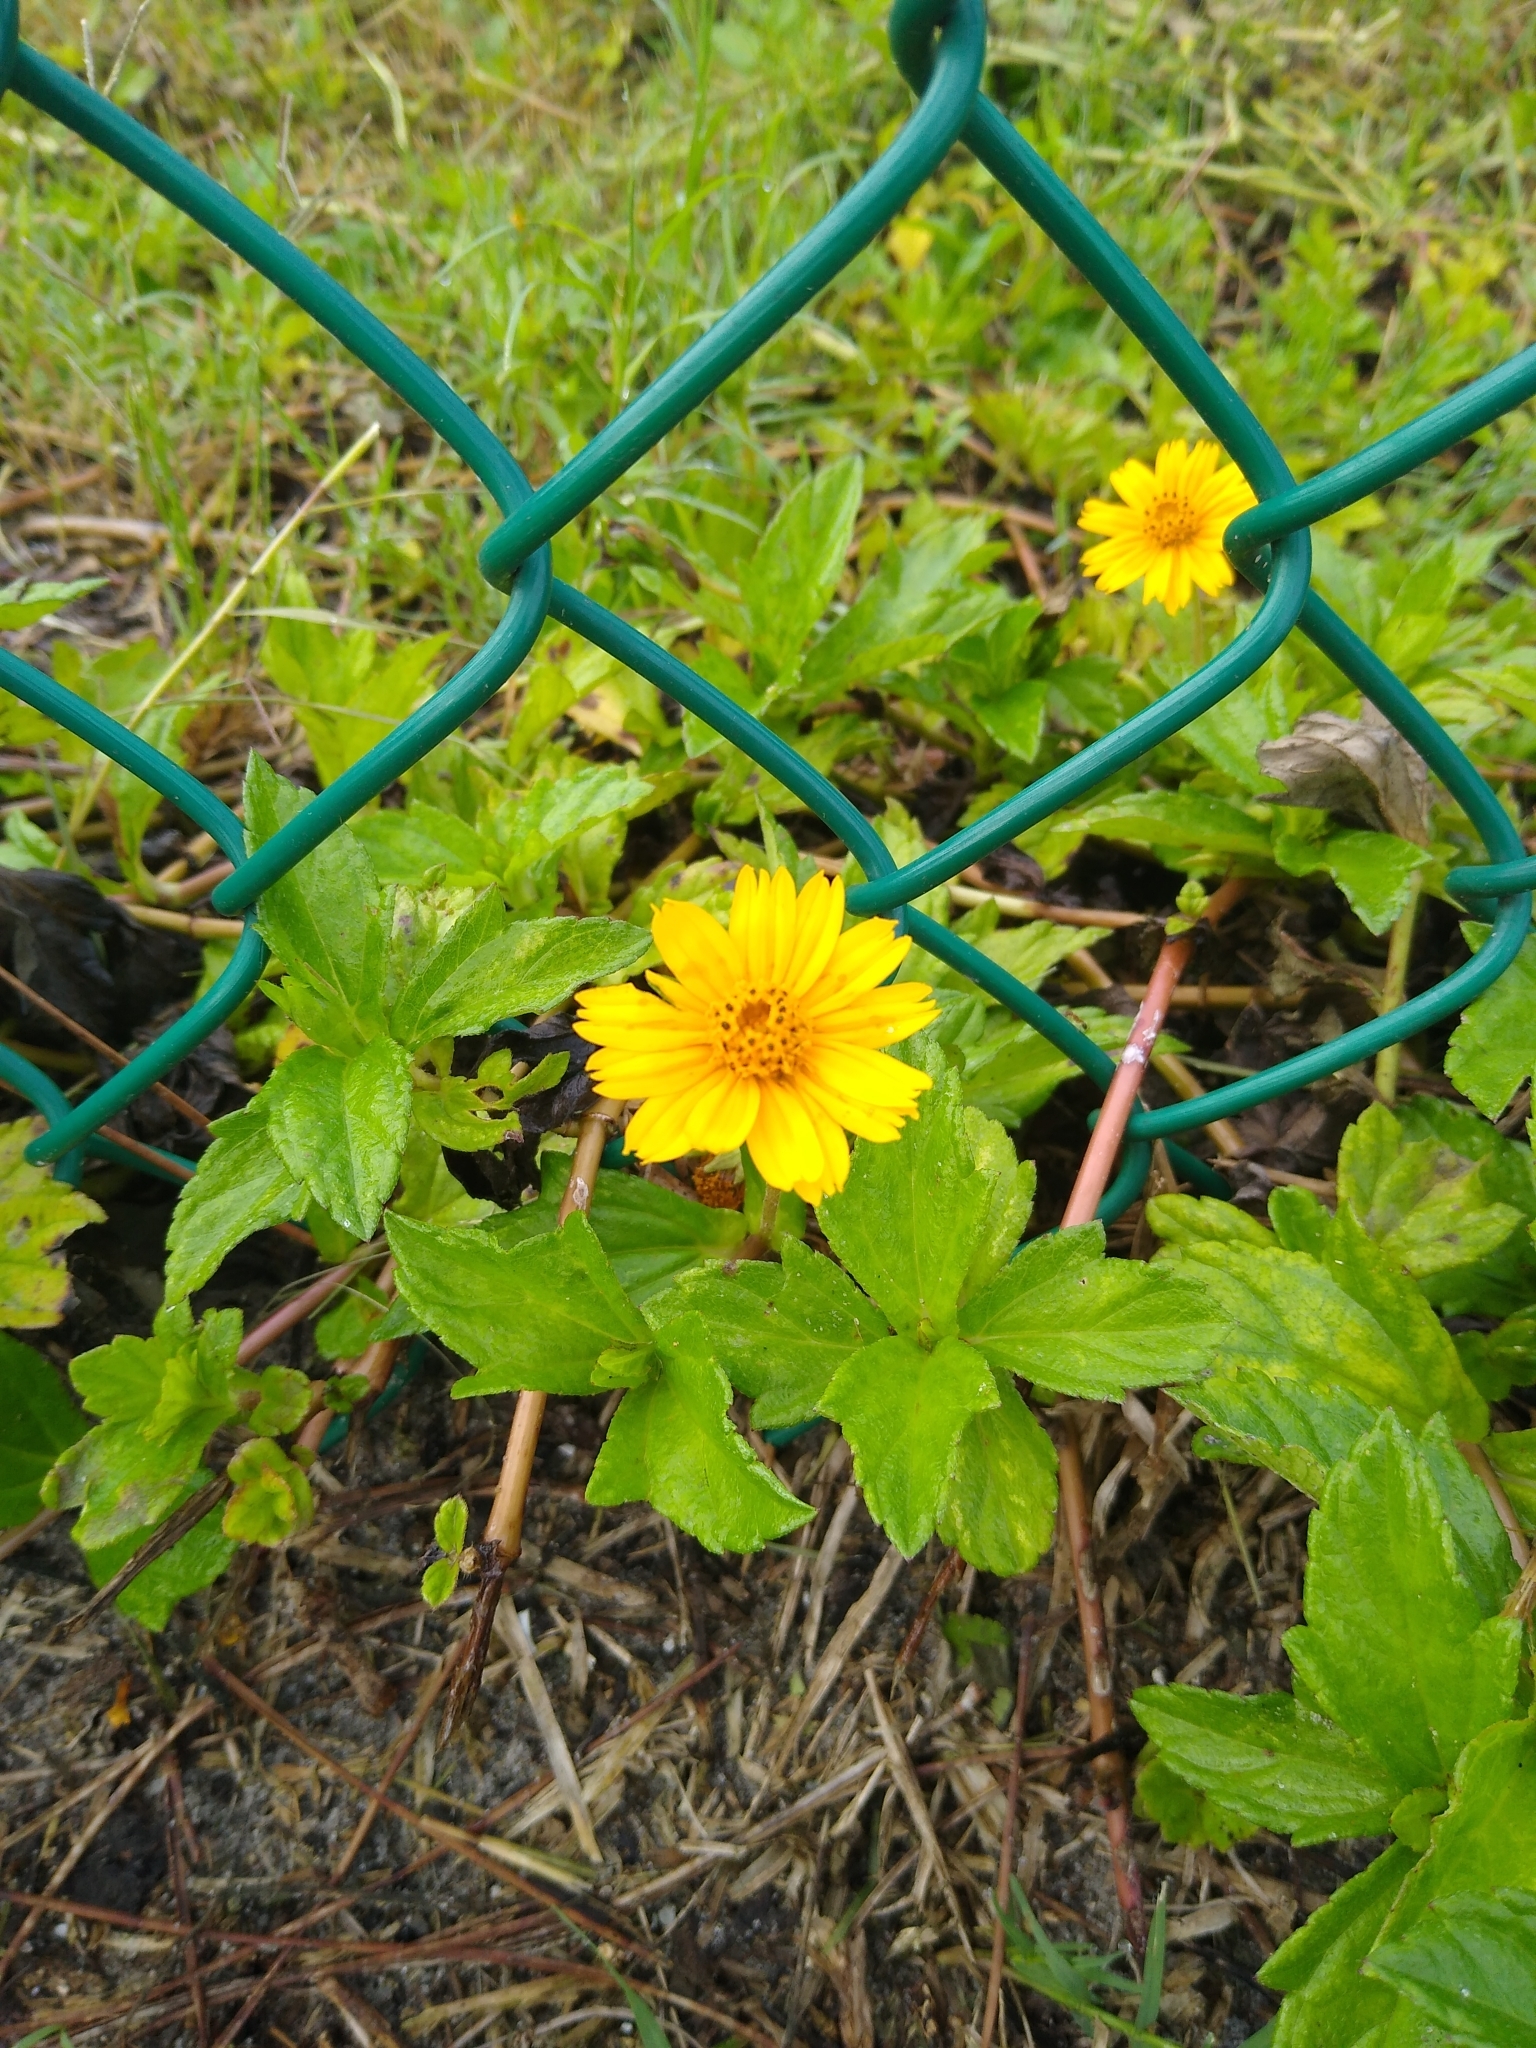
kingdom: Plantae
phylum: Tracheophyta
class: Magnoliopsida
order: Asterales
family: Asteraceae
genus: Sphagneticola
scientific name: Sphagneticola trilobata
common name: Bay biscayne creeping-oxeye
